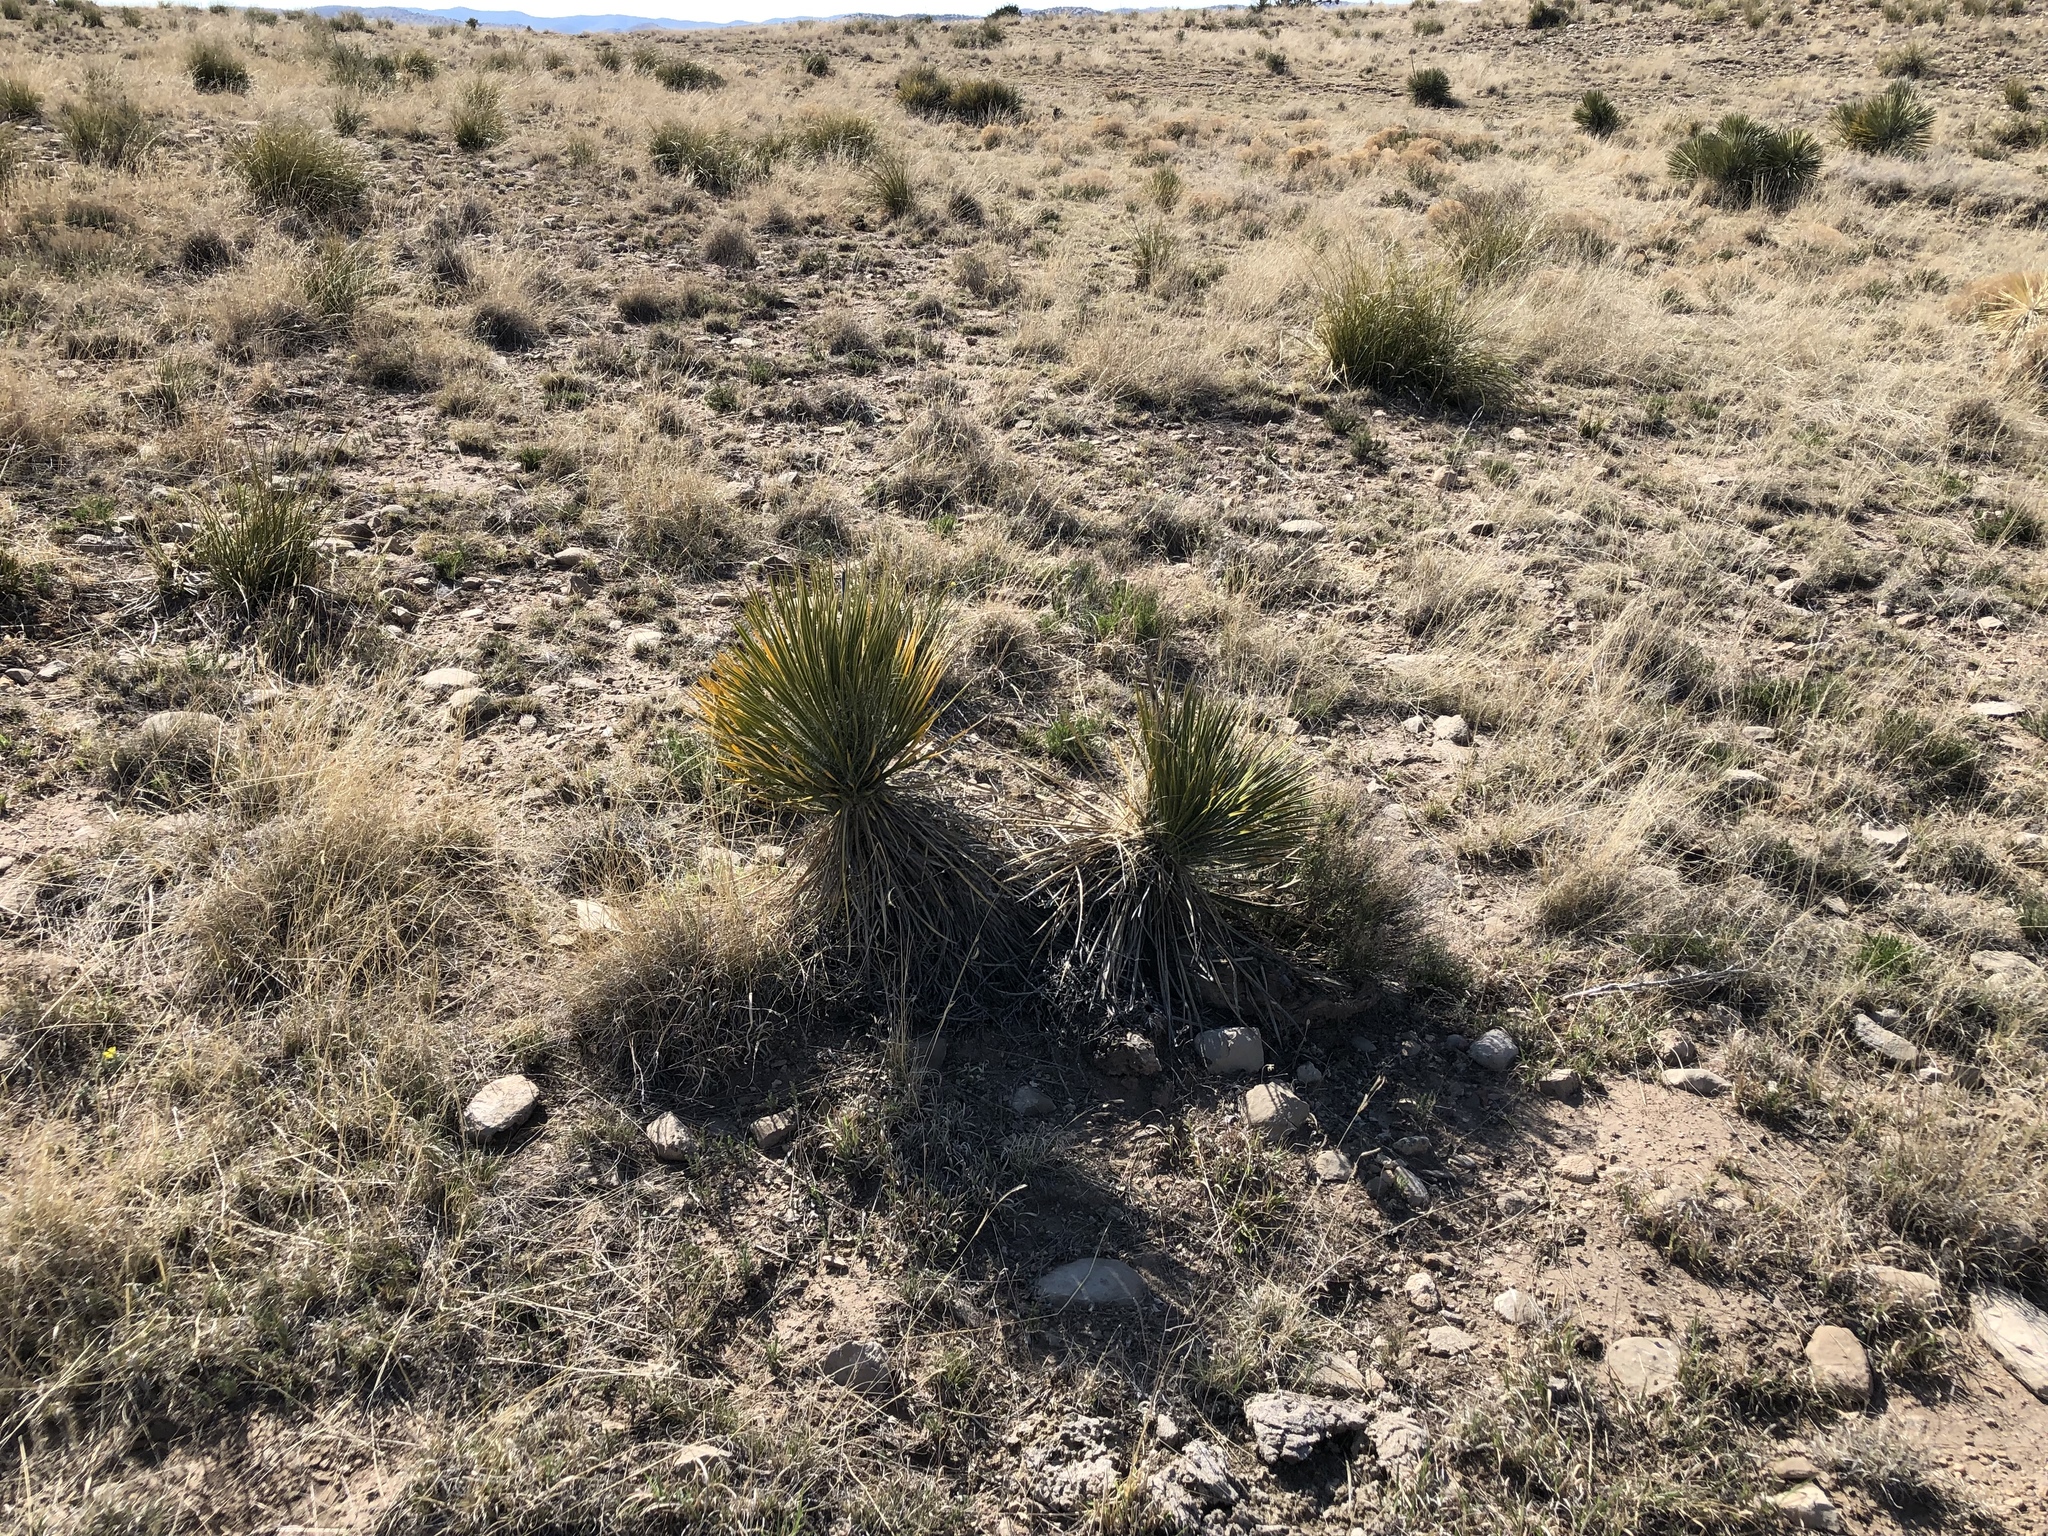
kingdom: Plantae
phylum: Tracheophyta
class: Liliopsida
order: Asparagales
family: Asparagaceae
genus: Yucca
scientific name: Yucca elata
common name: Palmella
